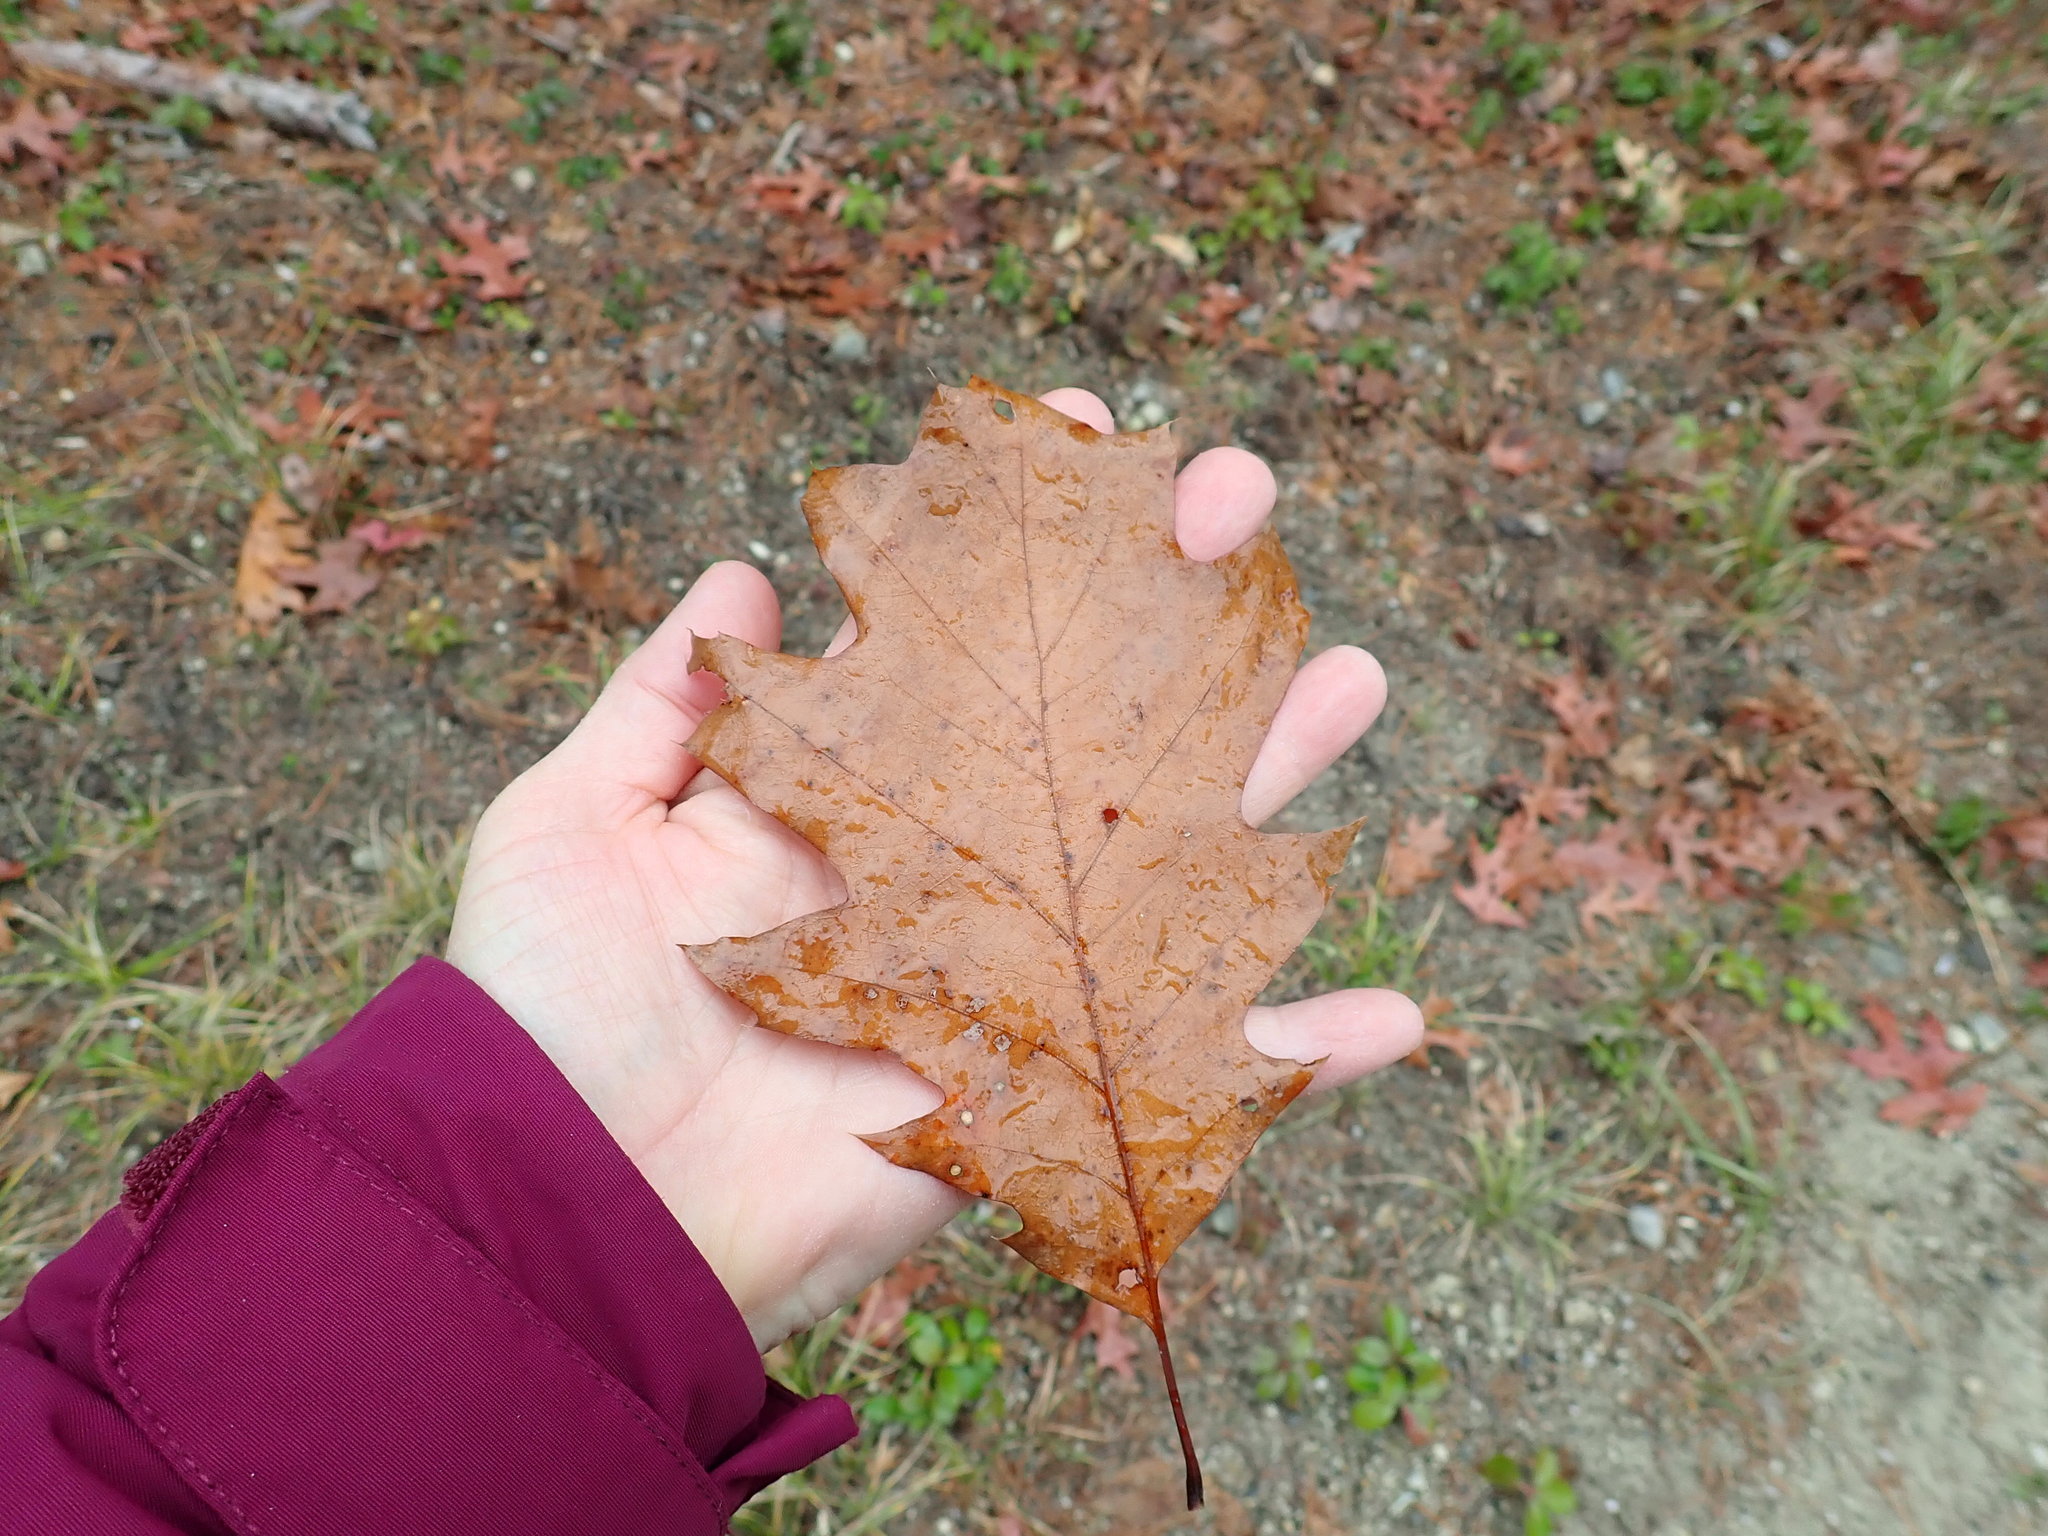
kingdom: Plantae
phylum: Tracheophyta
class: Magnoliopsida
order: Fagales
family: Fagaceae
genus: Quercus
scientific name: Quercus rubra
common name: Red oak
